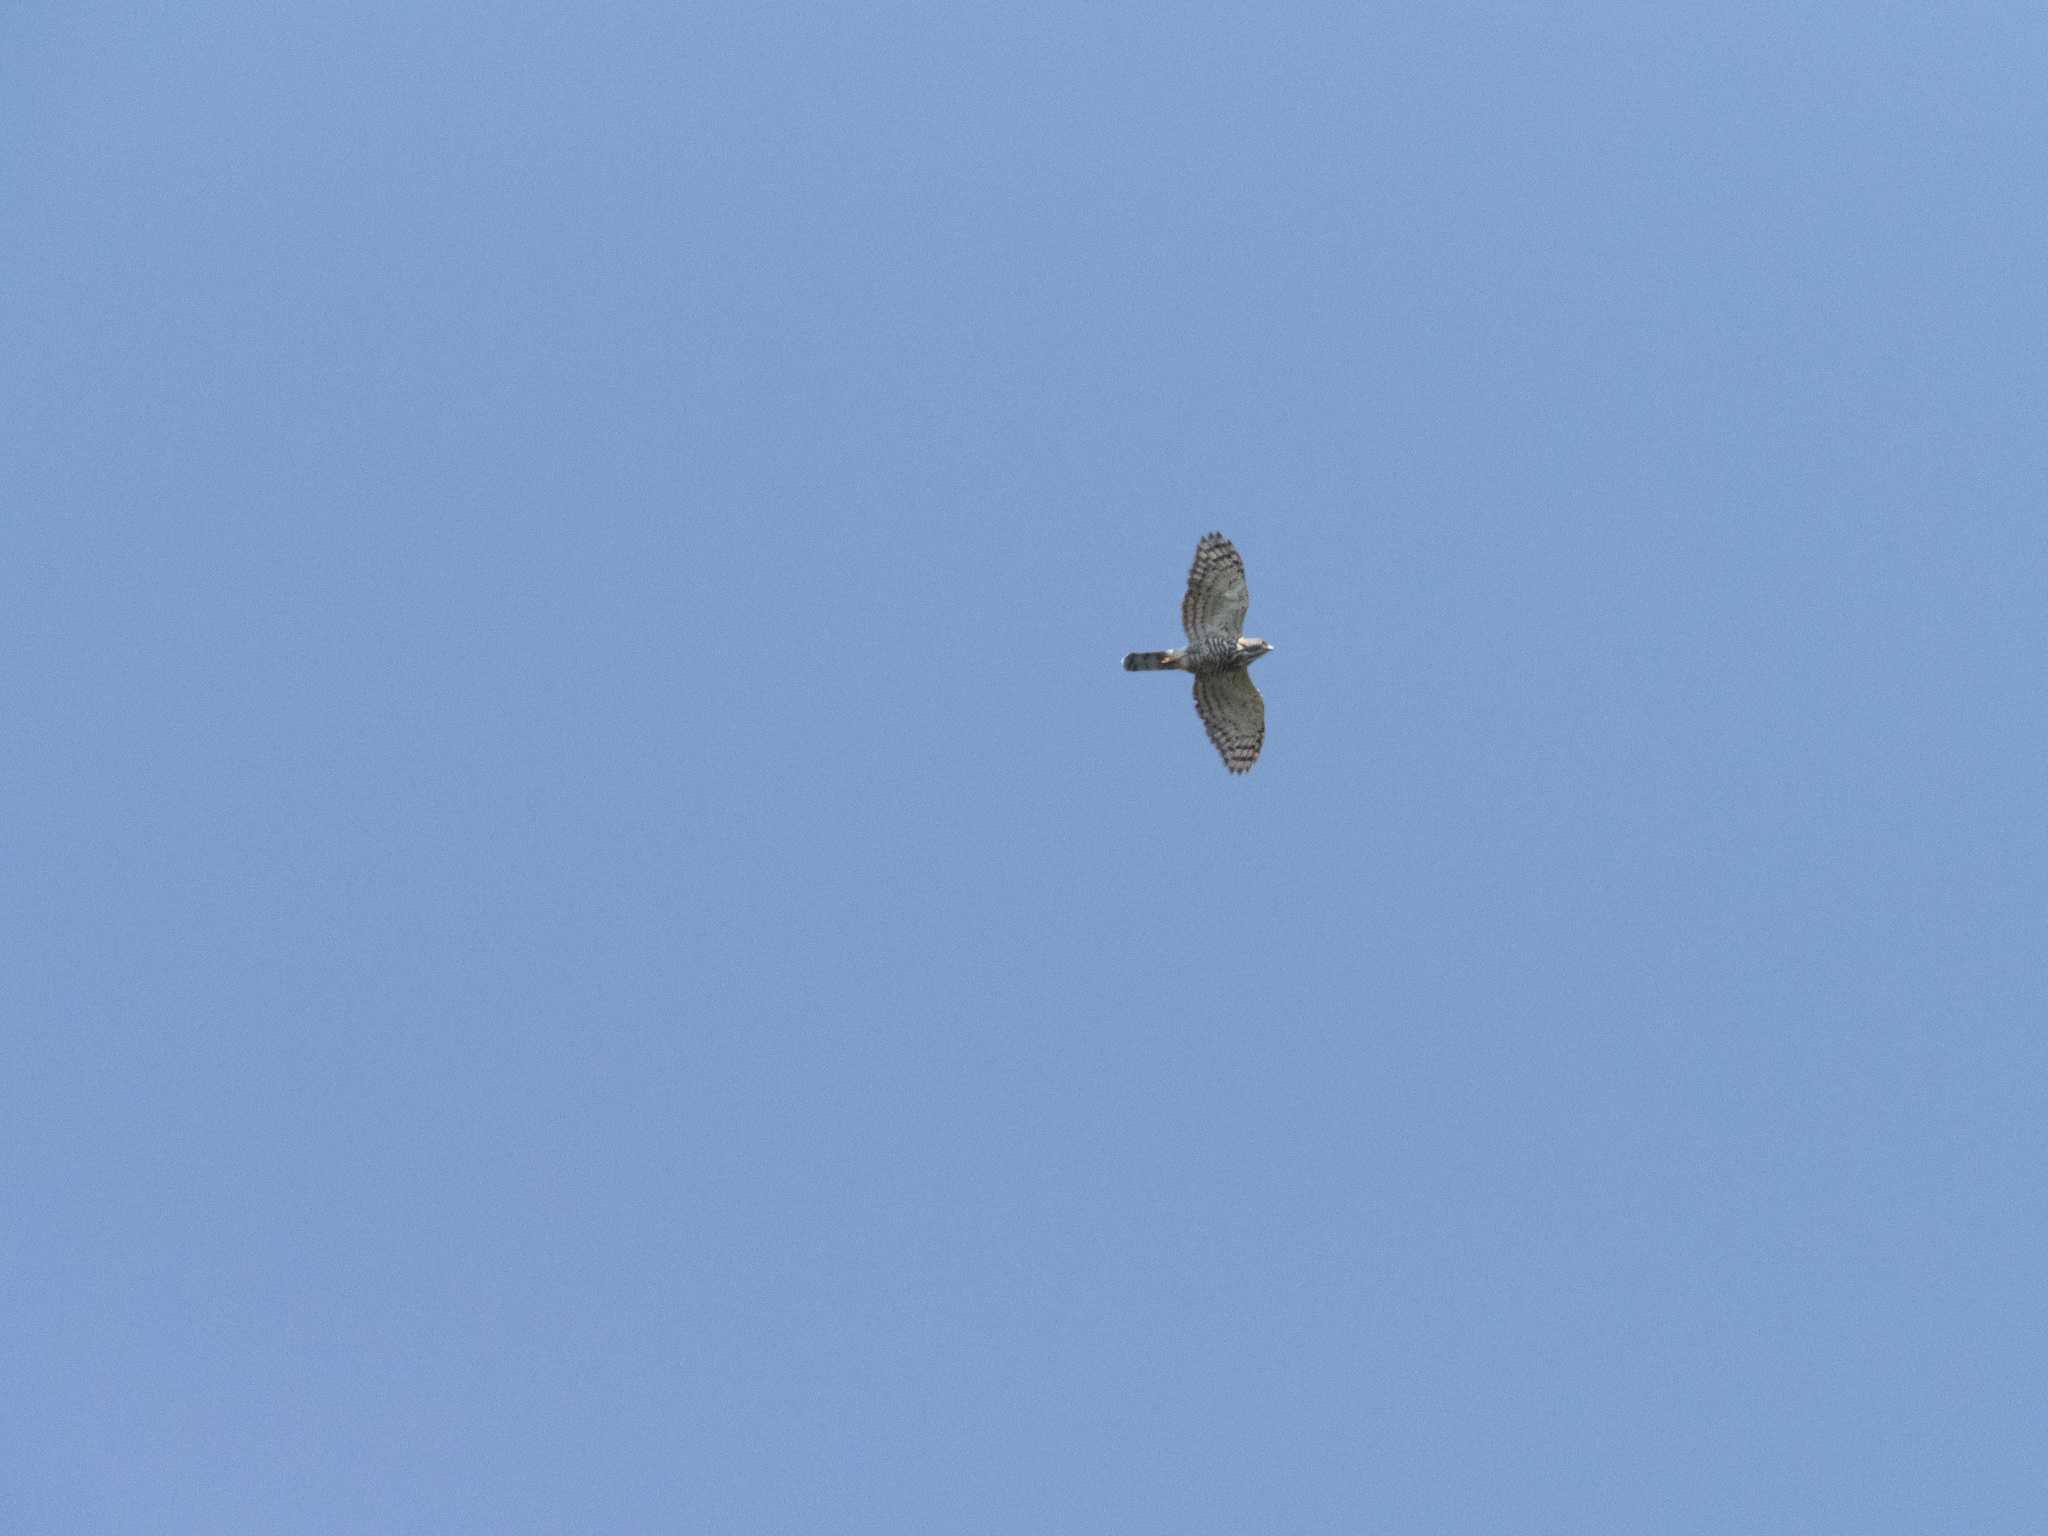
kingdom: Animalia
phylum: Chordata
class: Aves
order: Accipitriformes
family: Accipitridae
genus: Accipiter
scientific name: Accipiter trivirgatus
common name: Crested goshawk
